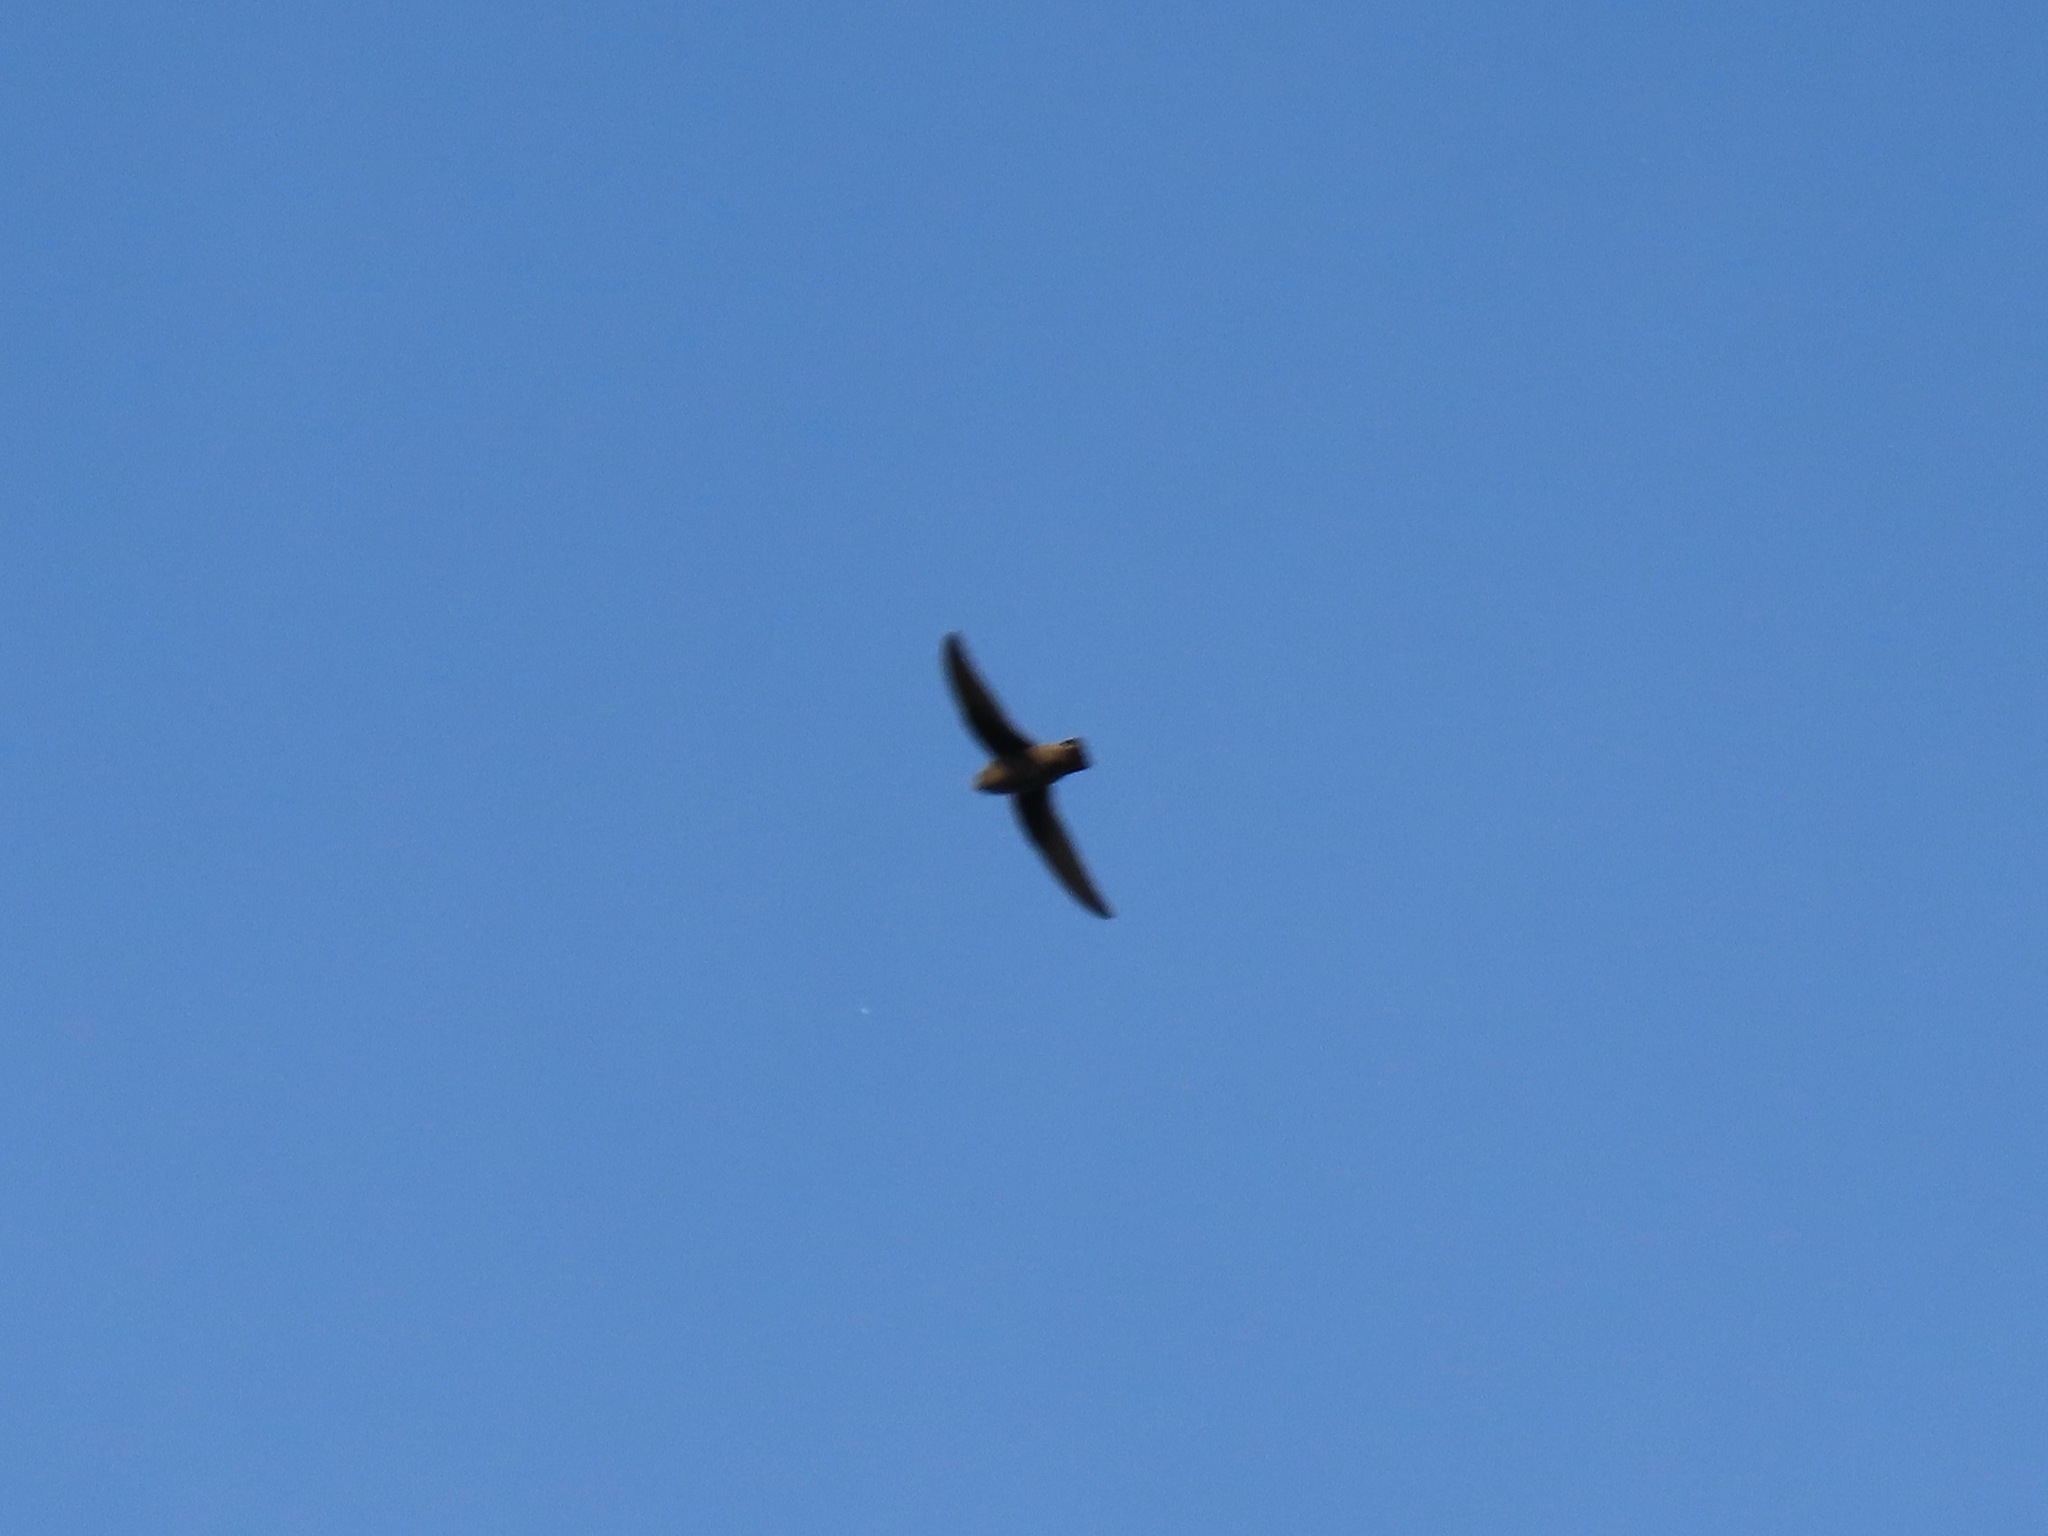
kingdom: Animalia
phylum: Chordata
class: Aves
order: Apodiformes
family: Apodidae
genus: Chaetura
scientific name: Chaetura vauxi
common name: Vaux's swift
